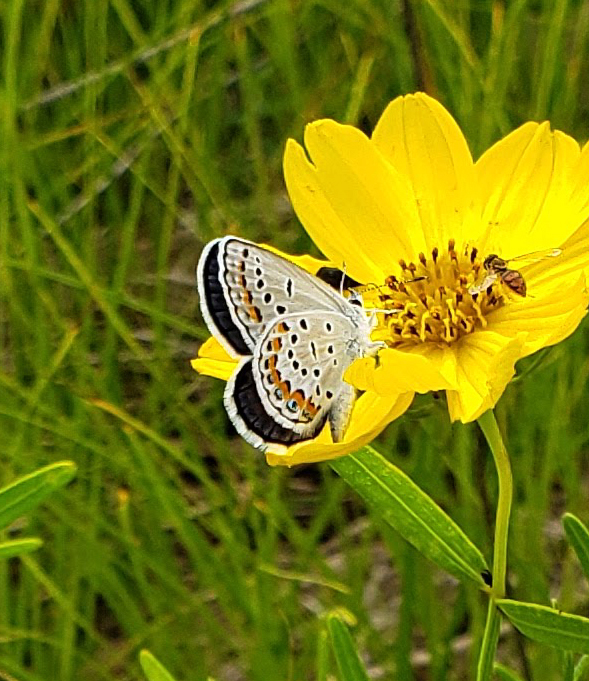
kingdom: Animalia
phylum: Arthropoda
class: Insecta
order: Lepidoptera
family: Lycaenidae
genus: Plebejus
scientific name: Plebejus samuelis
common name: Karner blue
